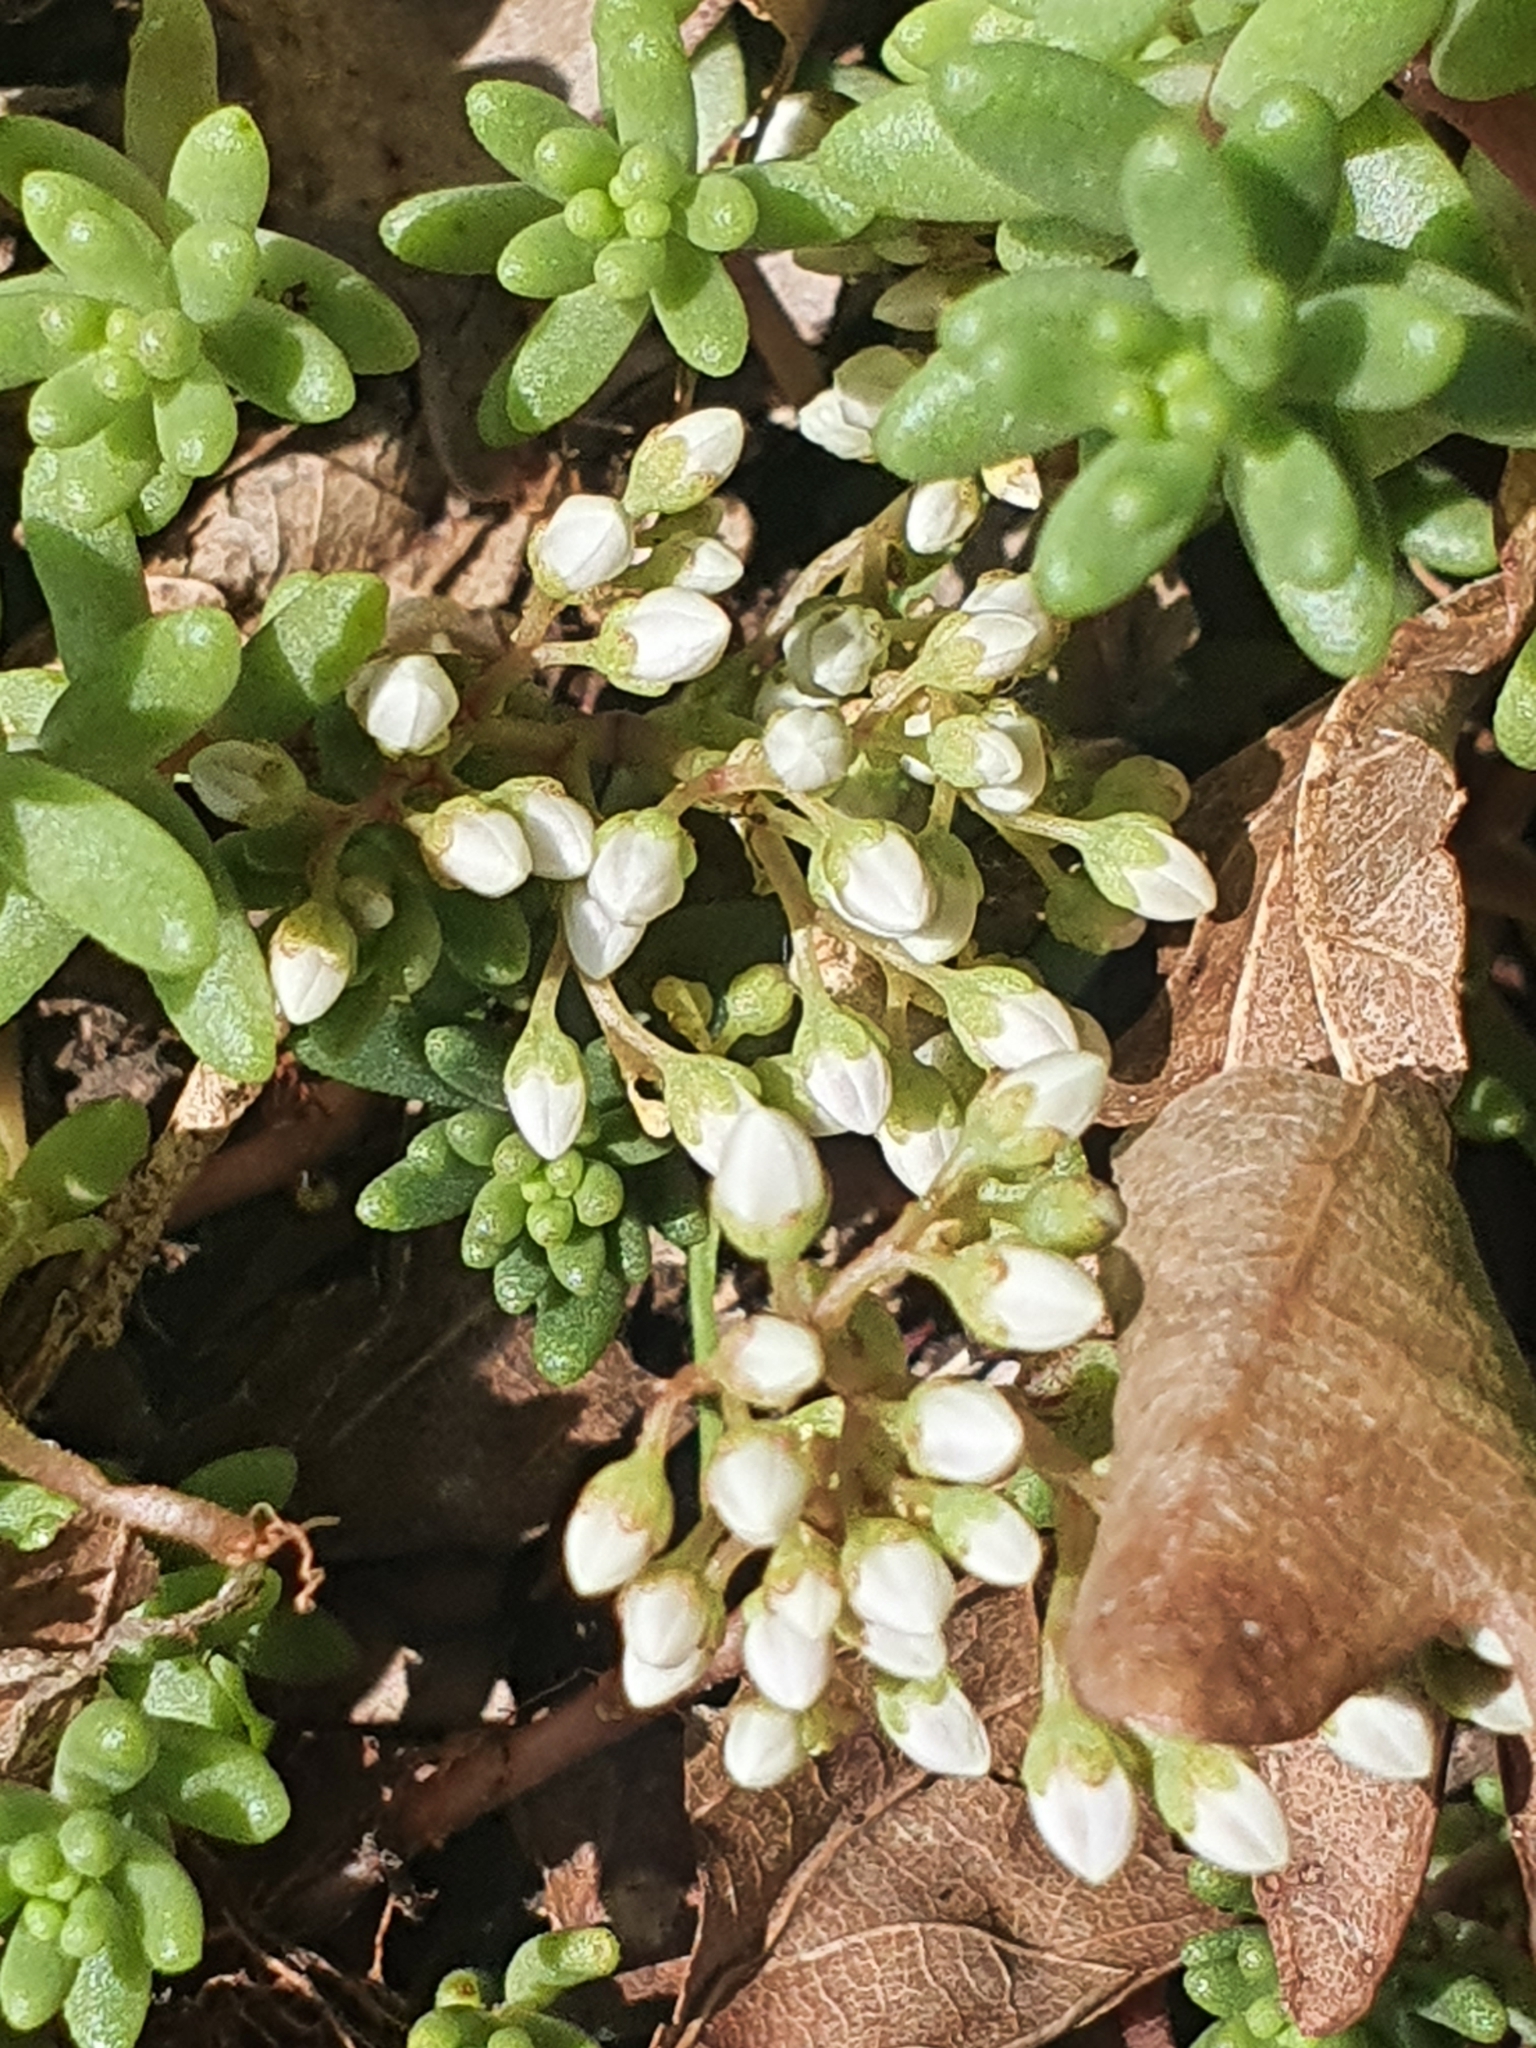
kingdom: Plantae
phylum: Tracheophyta
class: Magnoliopsida
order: Saxifragales
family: Crassulaceae
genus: Sedum
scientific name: Sedum album
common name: White stonecrop
